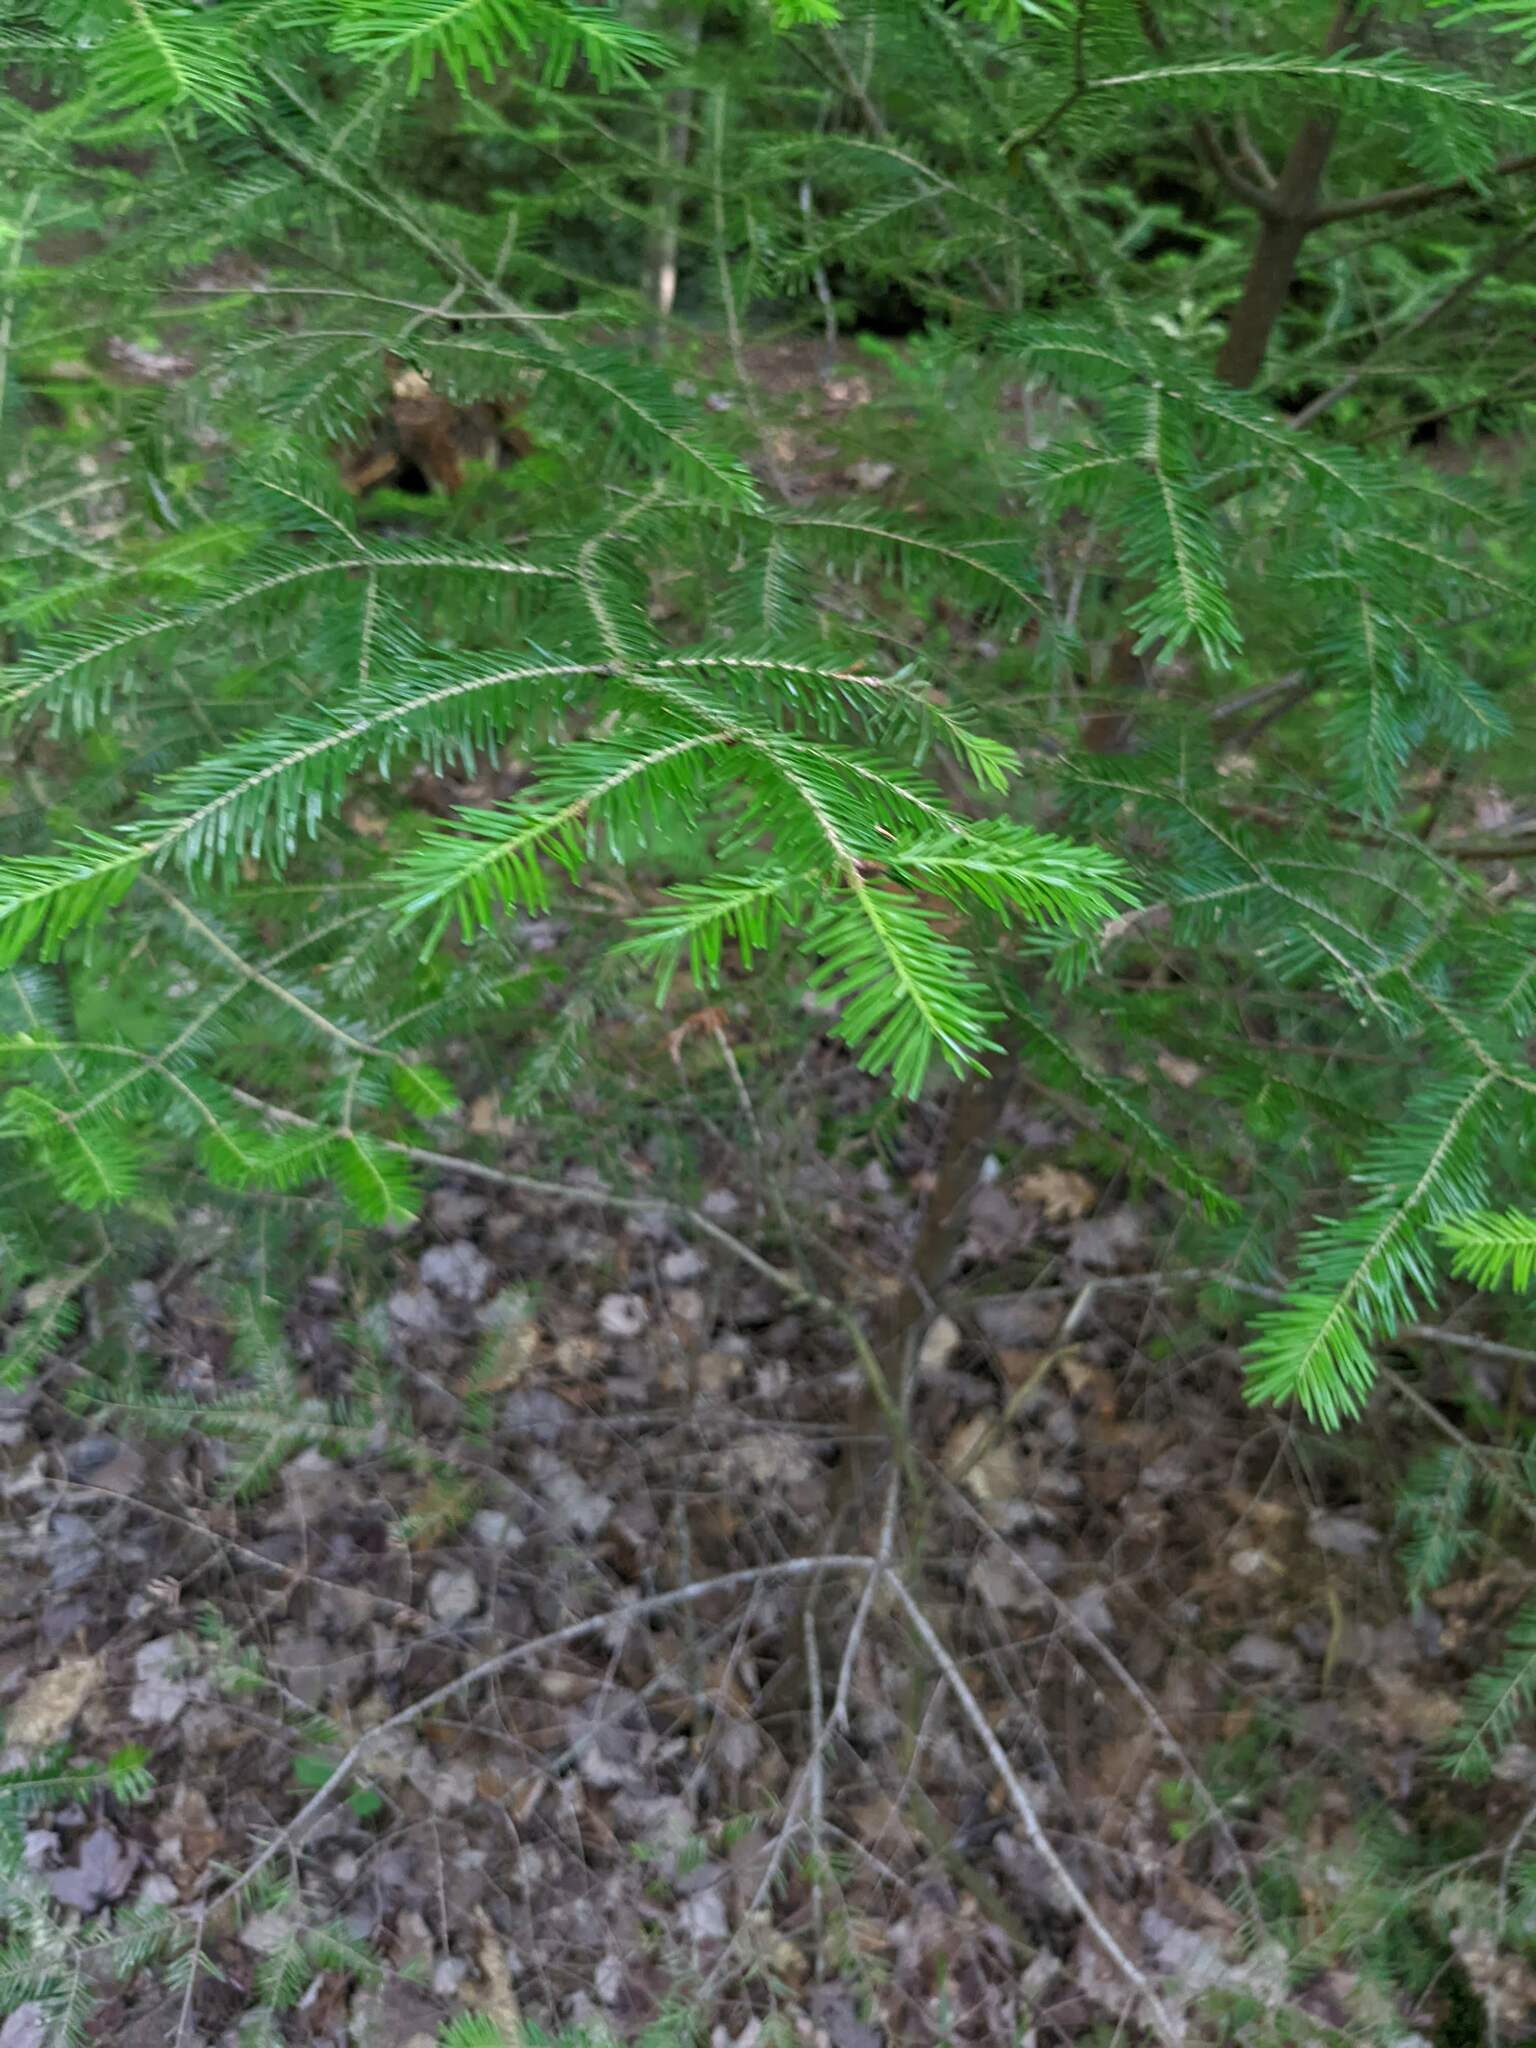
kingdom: Plantae
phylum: Tracheophyta
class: Pinopsida
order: Pinales
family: Pinaceae
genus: Abies
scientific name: Abies balsamea
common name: Balsam fir
